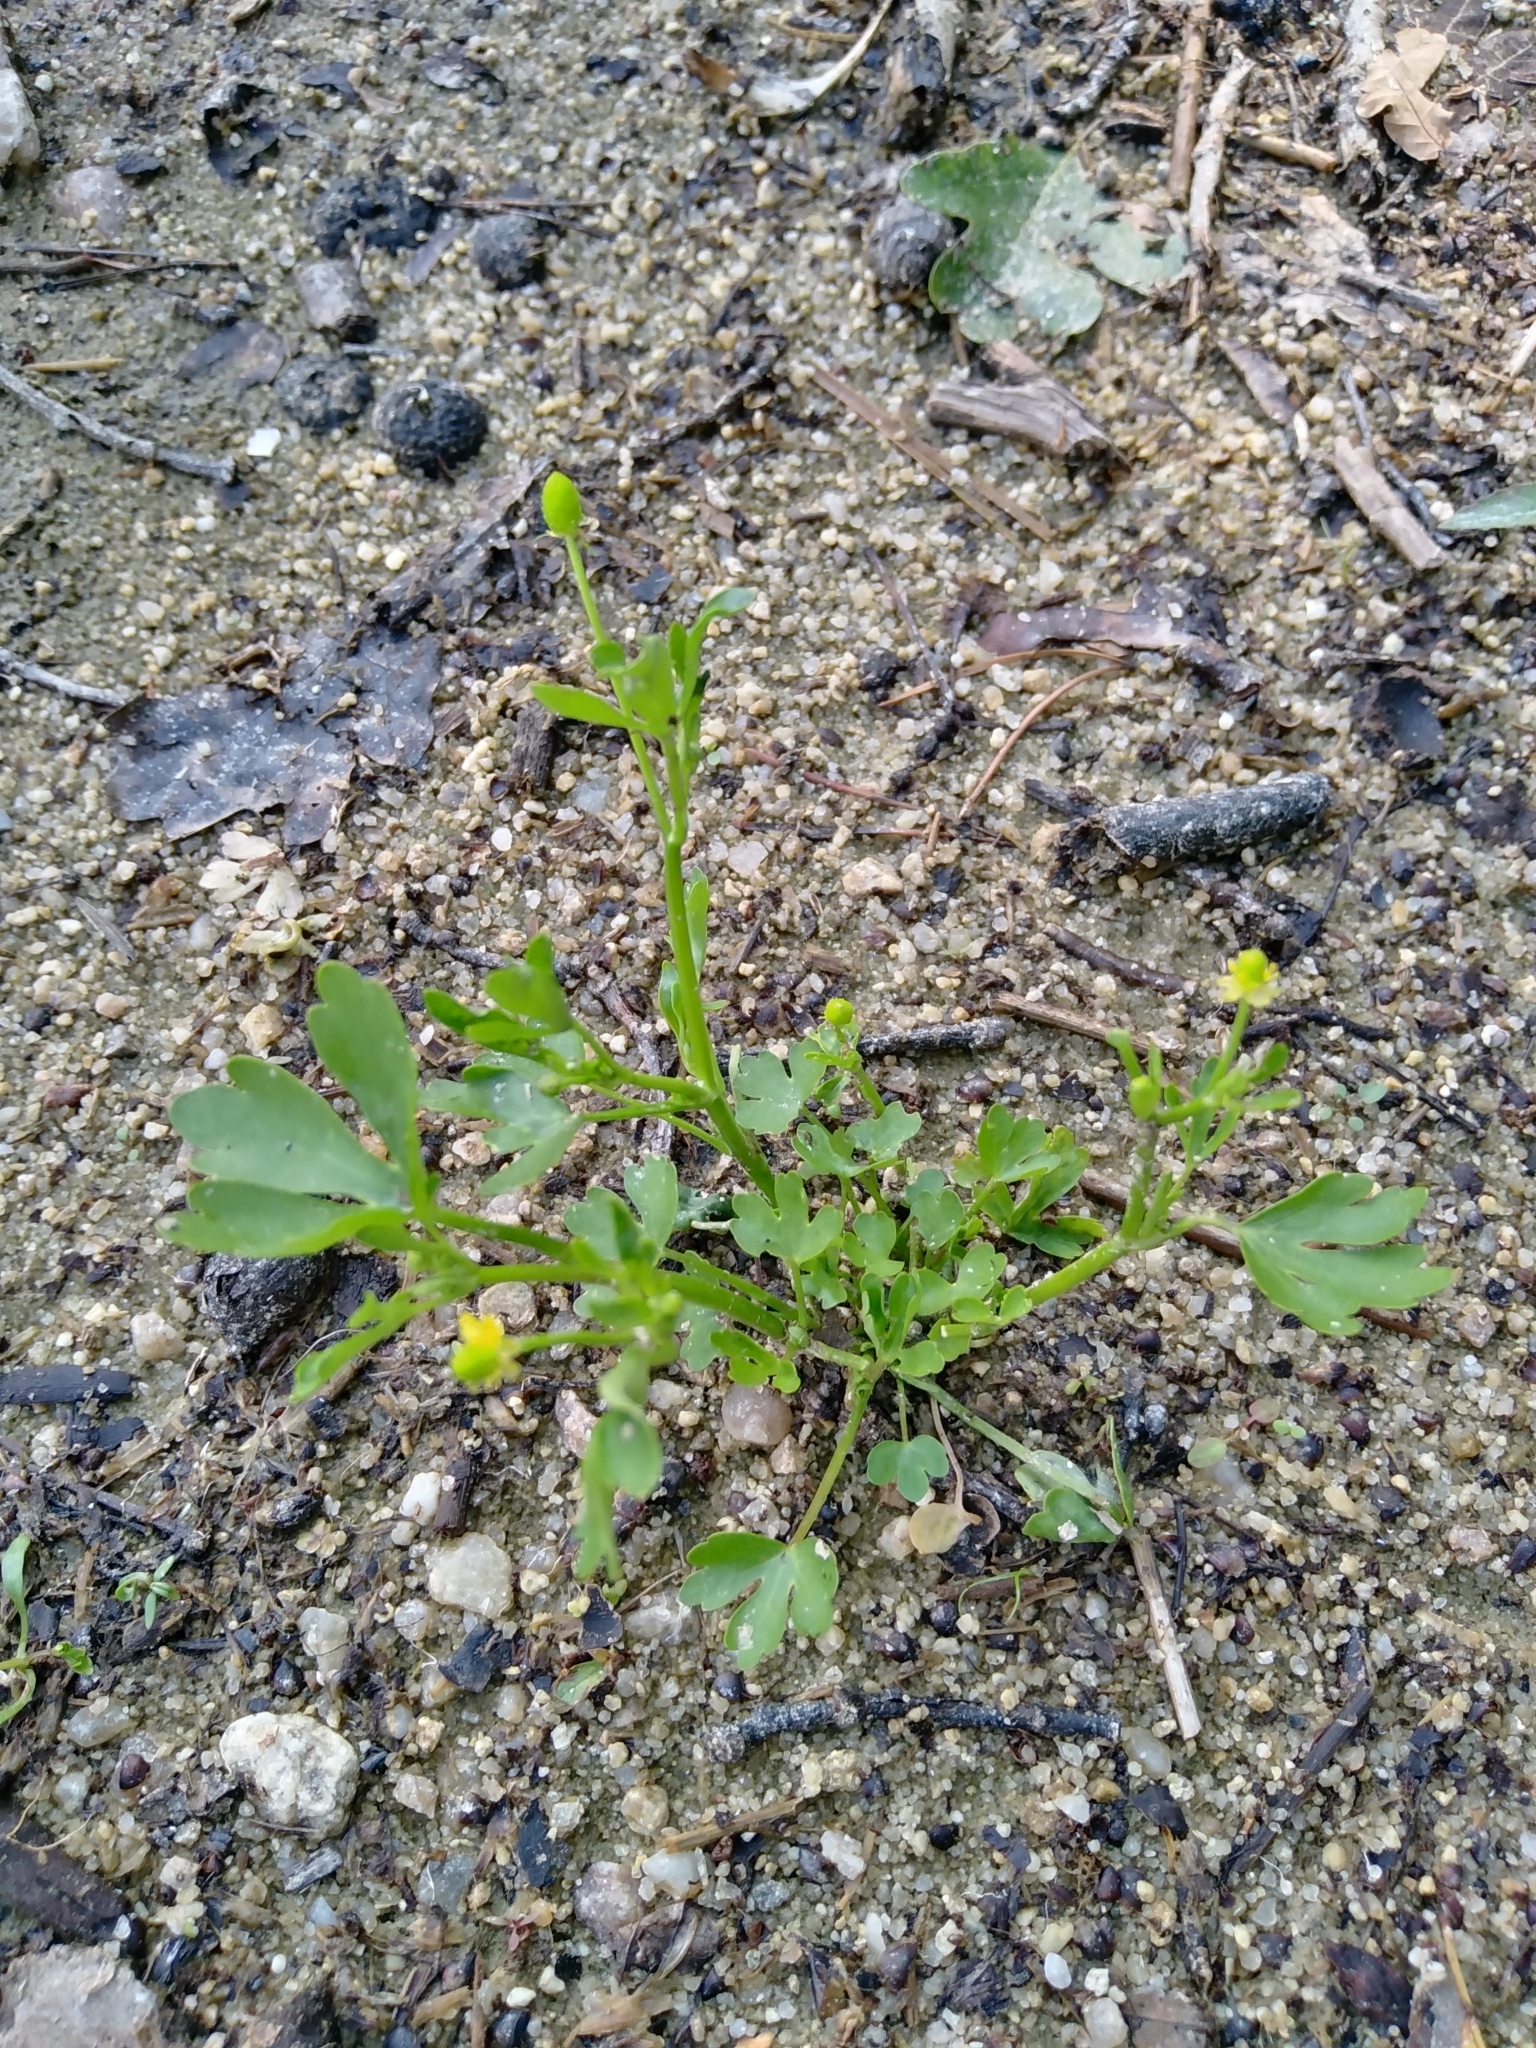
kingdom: Plantae
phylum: Tracheophyta
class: Magnoliopsida
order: Ranunculales
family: Ranunculaceae
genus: Ranunculus
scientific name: Ranunculus sceleratus
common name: Celery-leaved buttercup
